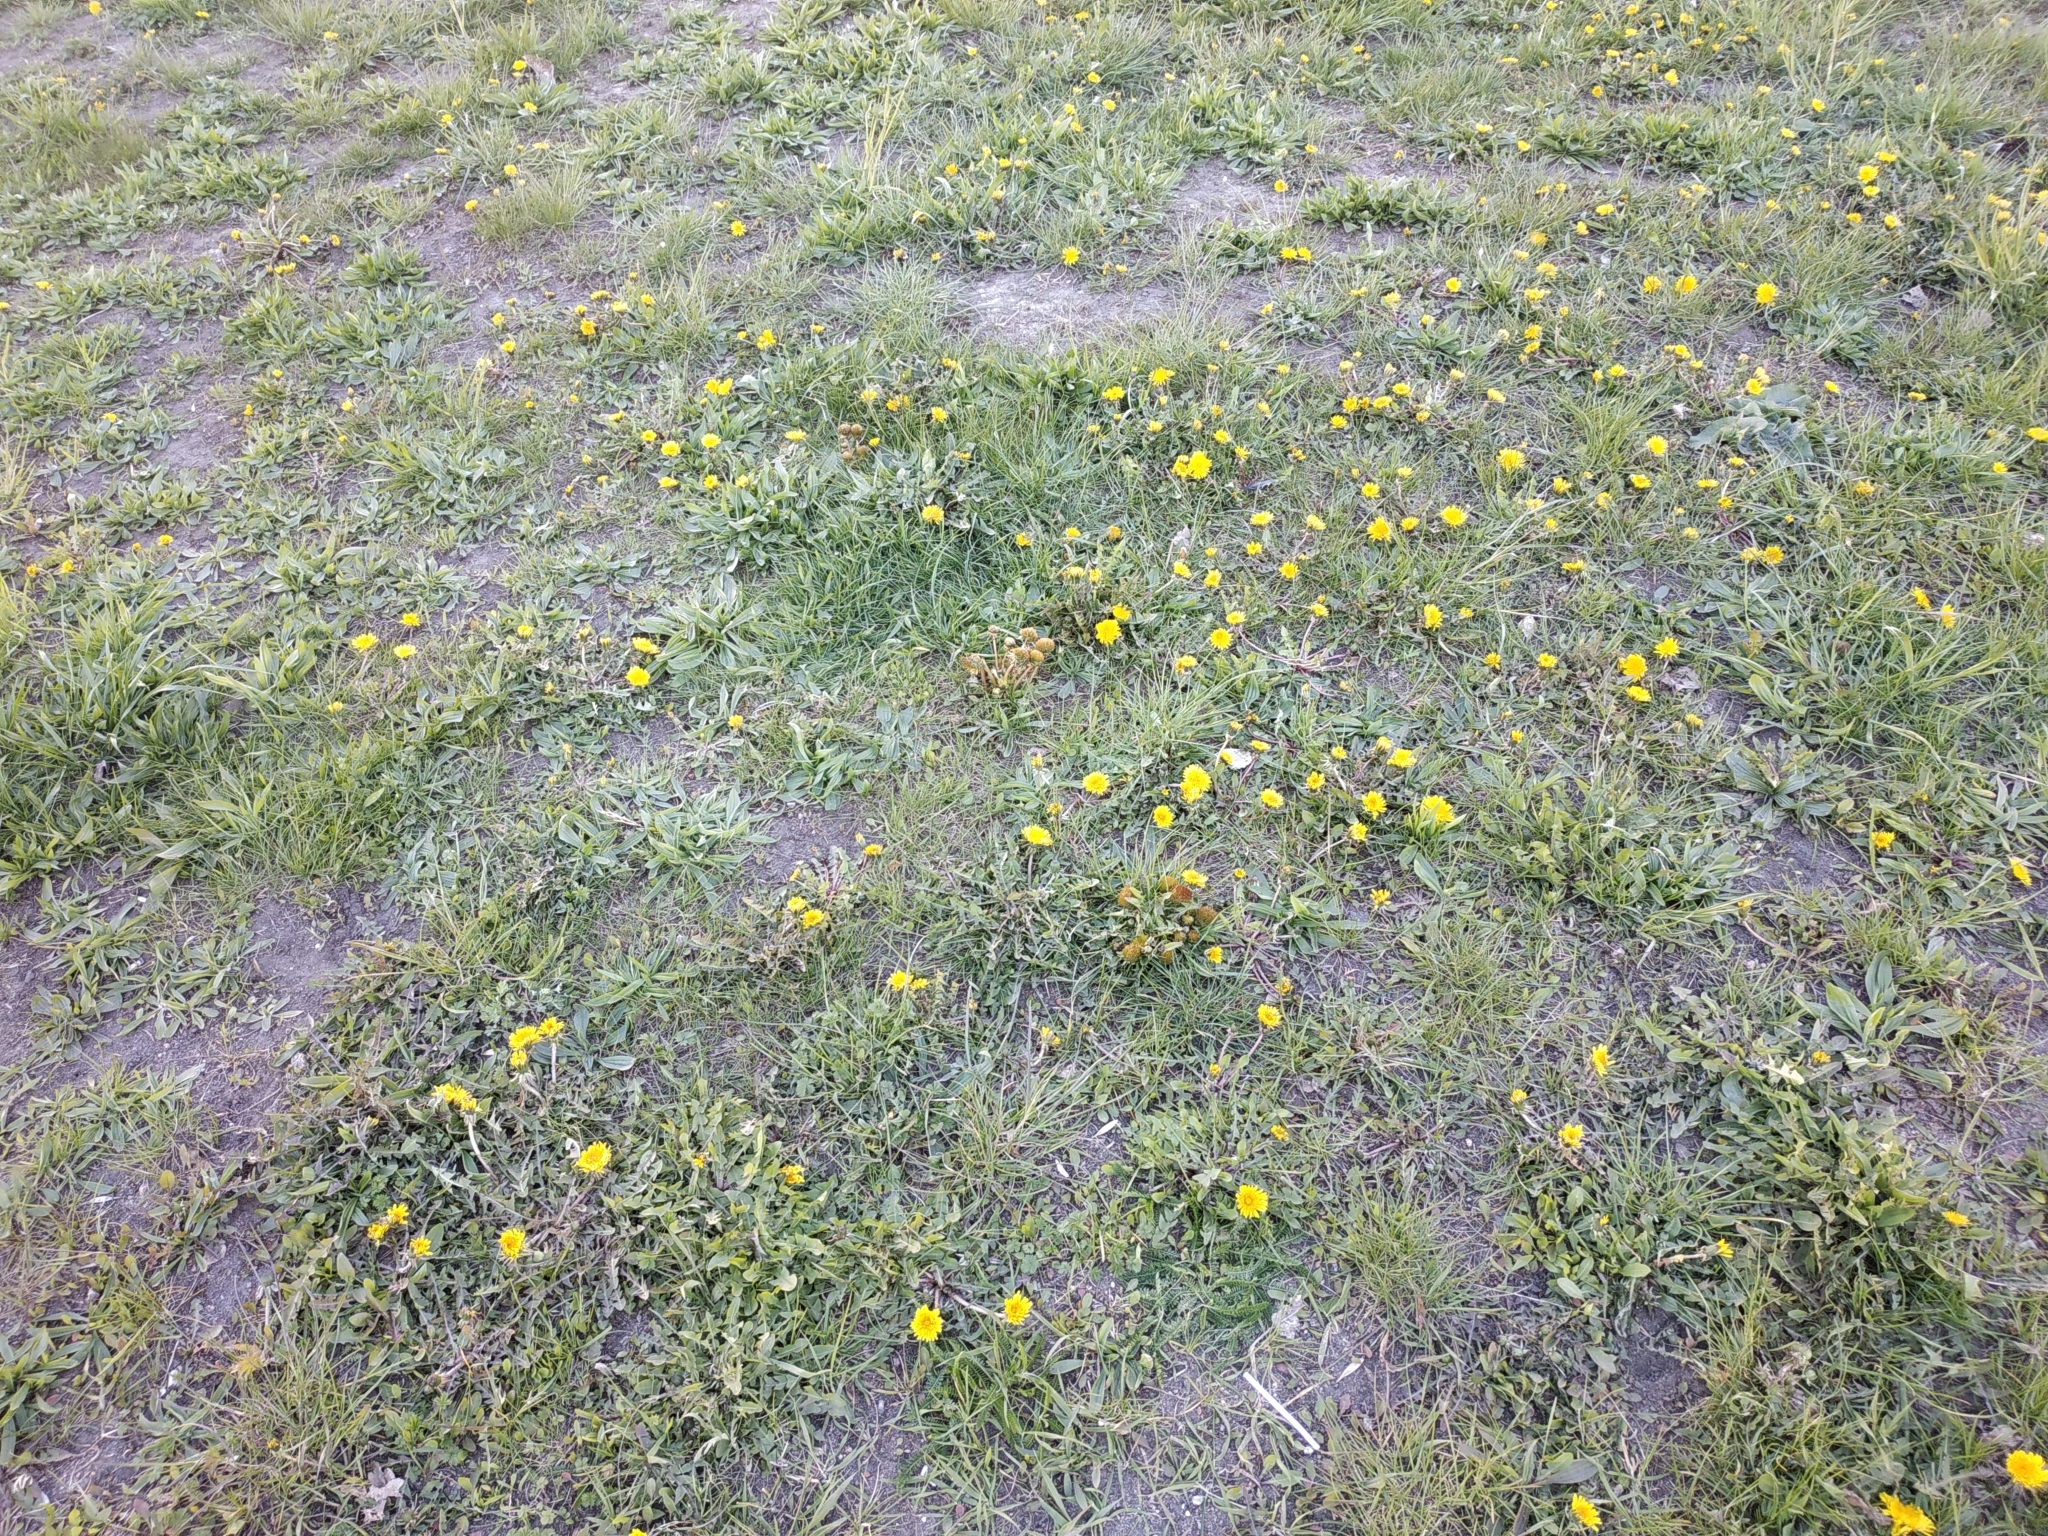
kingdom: Plantae
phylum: Tracheophyta
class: Magnoliopsida
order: Asterales
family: Asteraceae
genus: Taraxacum
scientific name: Taraxacum officinale
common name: Common dandelion
